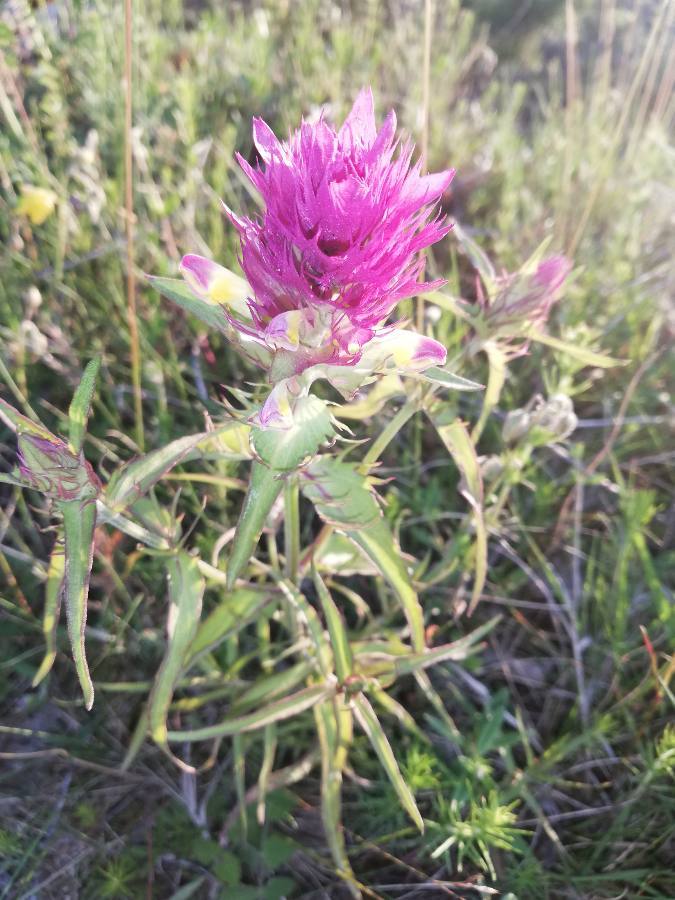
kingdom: Plantae
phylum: Tracheophyta
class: Magnoliopsida
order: Lamiales
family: Orobanchaceae
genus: Melampyrum
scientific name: Melampyrum arvense
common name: Field cow-wheat
